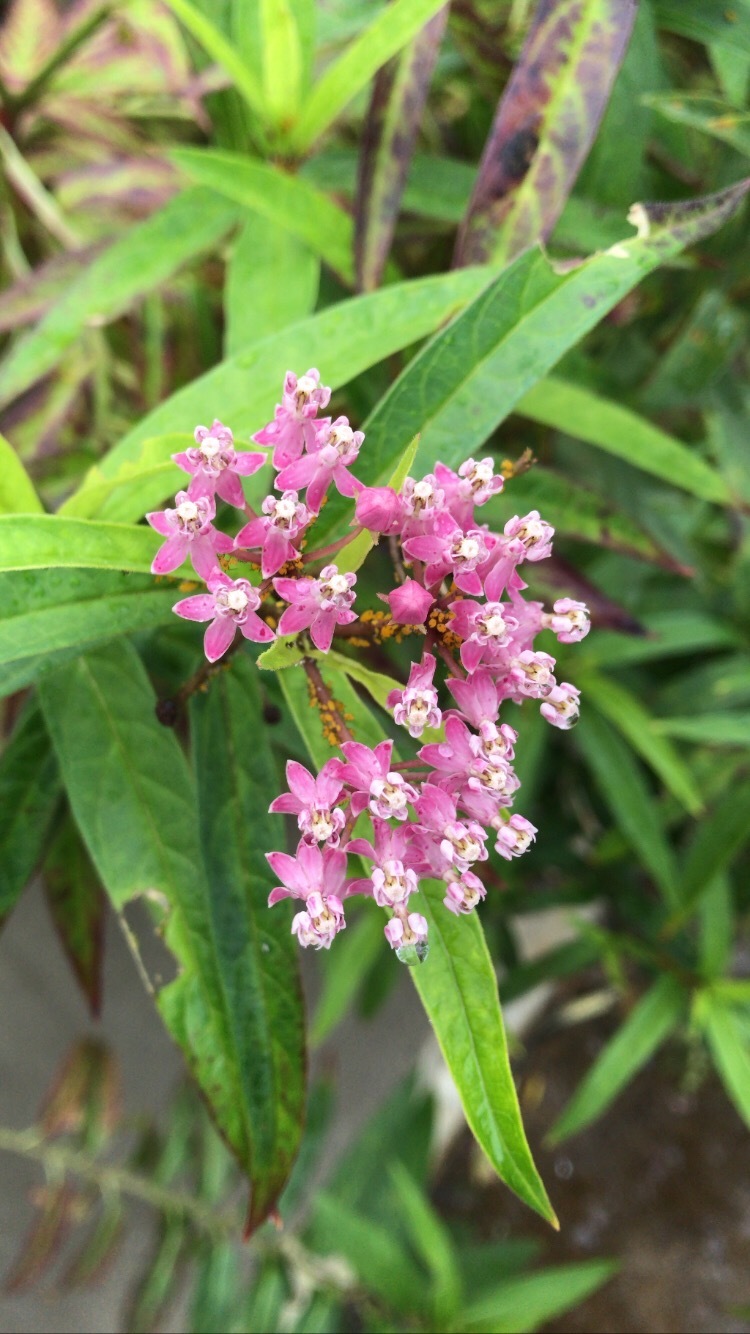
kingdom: Plantae
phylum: Tracheophyta
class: Magnoliopsida
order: Gentianales
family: Apocynaceae
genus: Asclepias
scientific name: Asclepias incarnata
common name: Swamp milkweed
